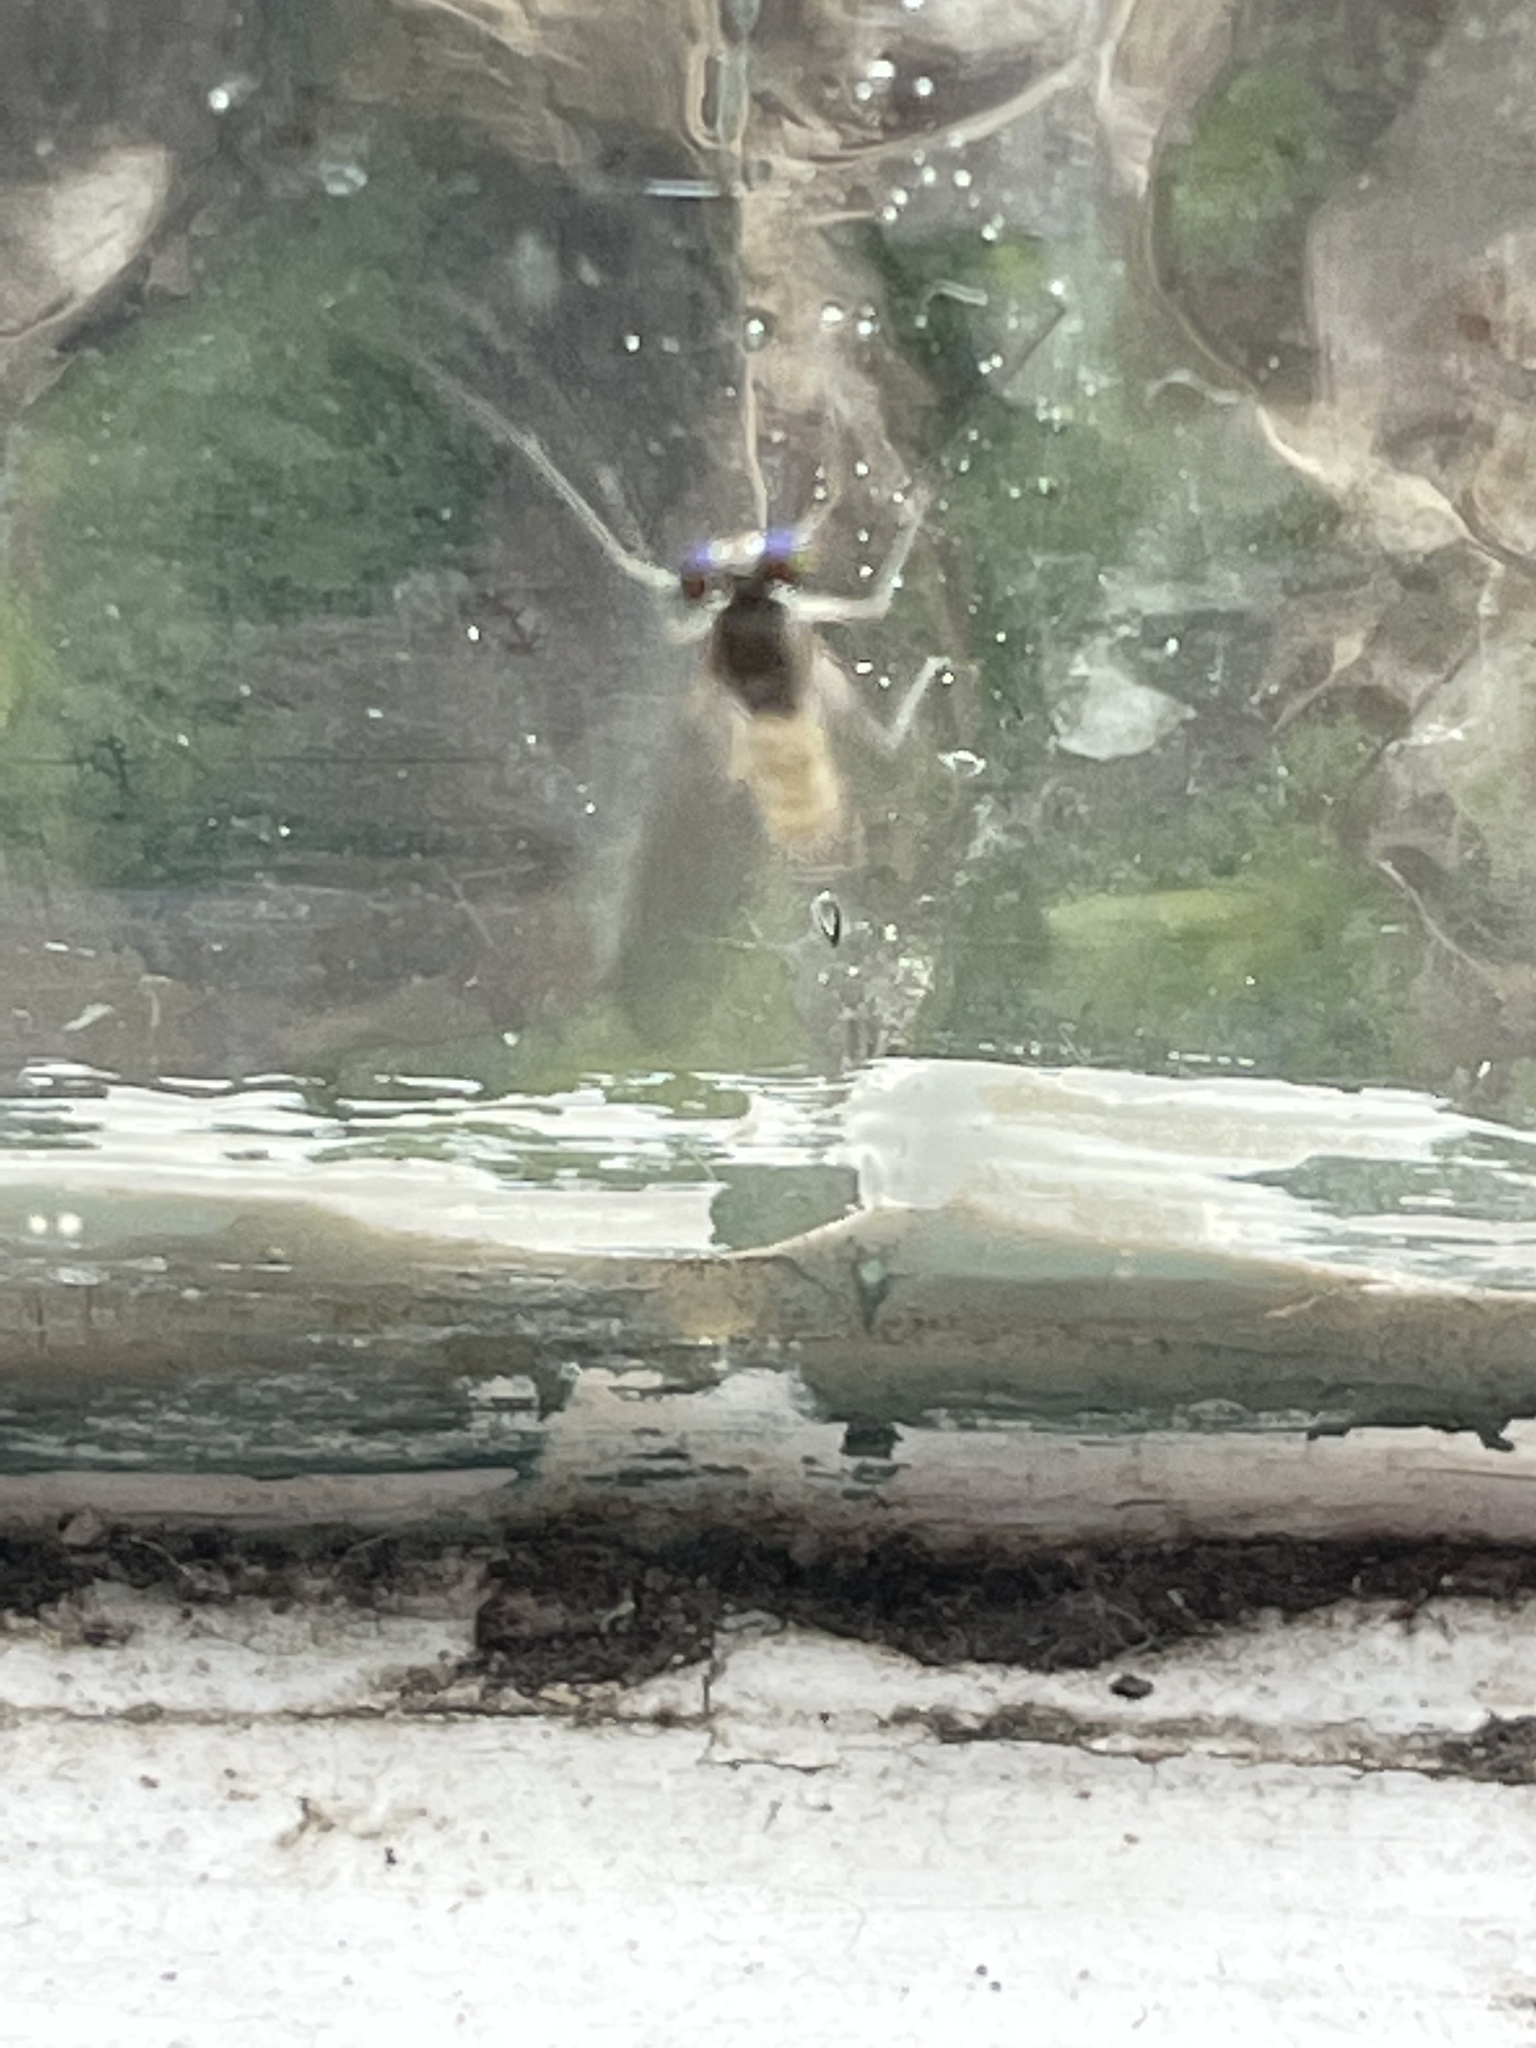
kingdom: Animalia
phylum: Arthropoda
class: Insecta
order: Diptera
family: Dolichopodidae
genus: Amblypsilopus
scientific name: Amblypsilopus triscuticatus
